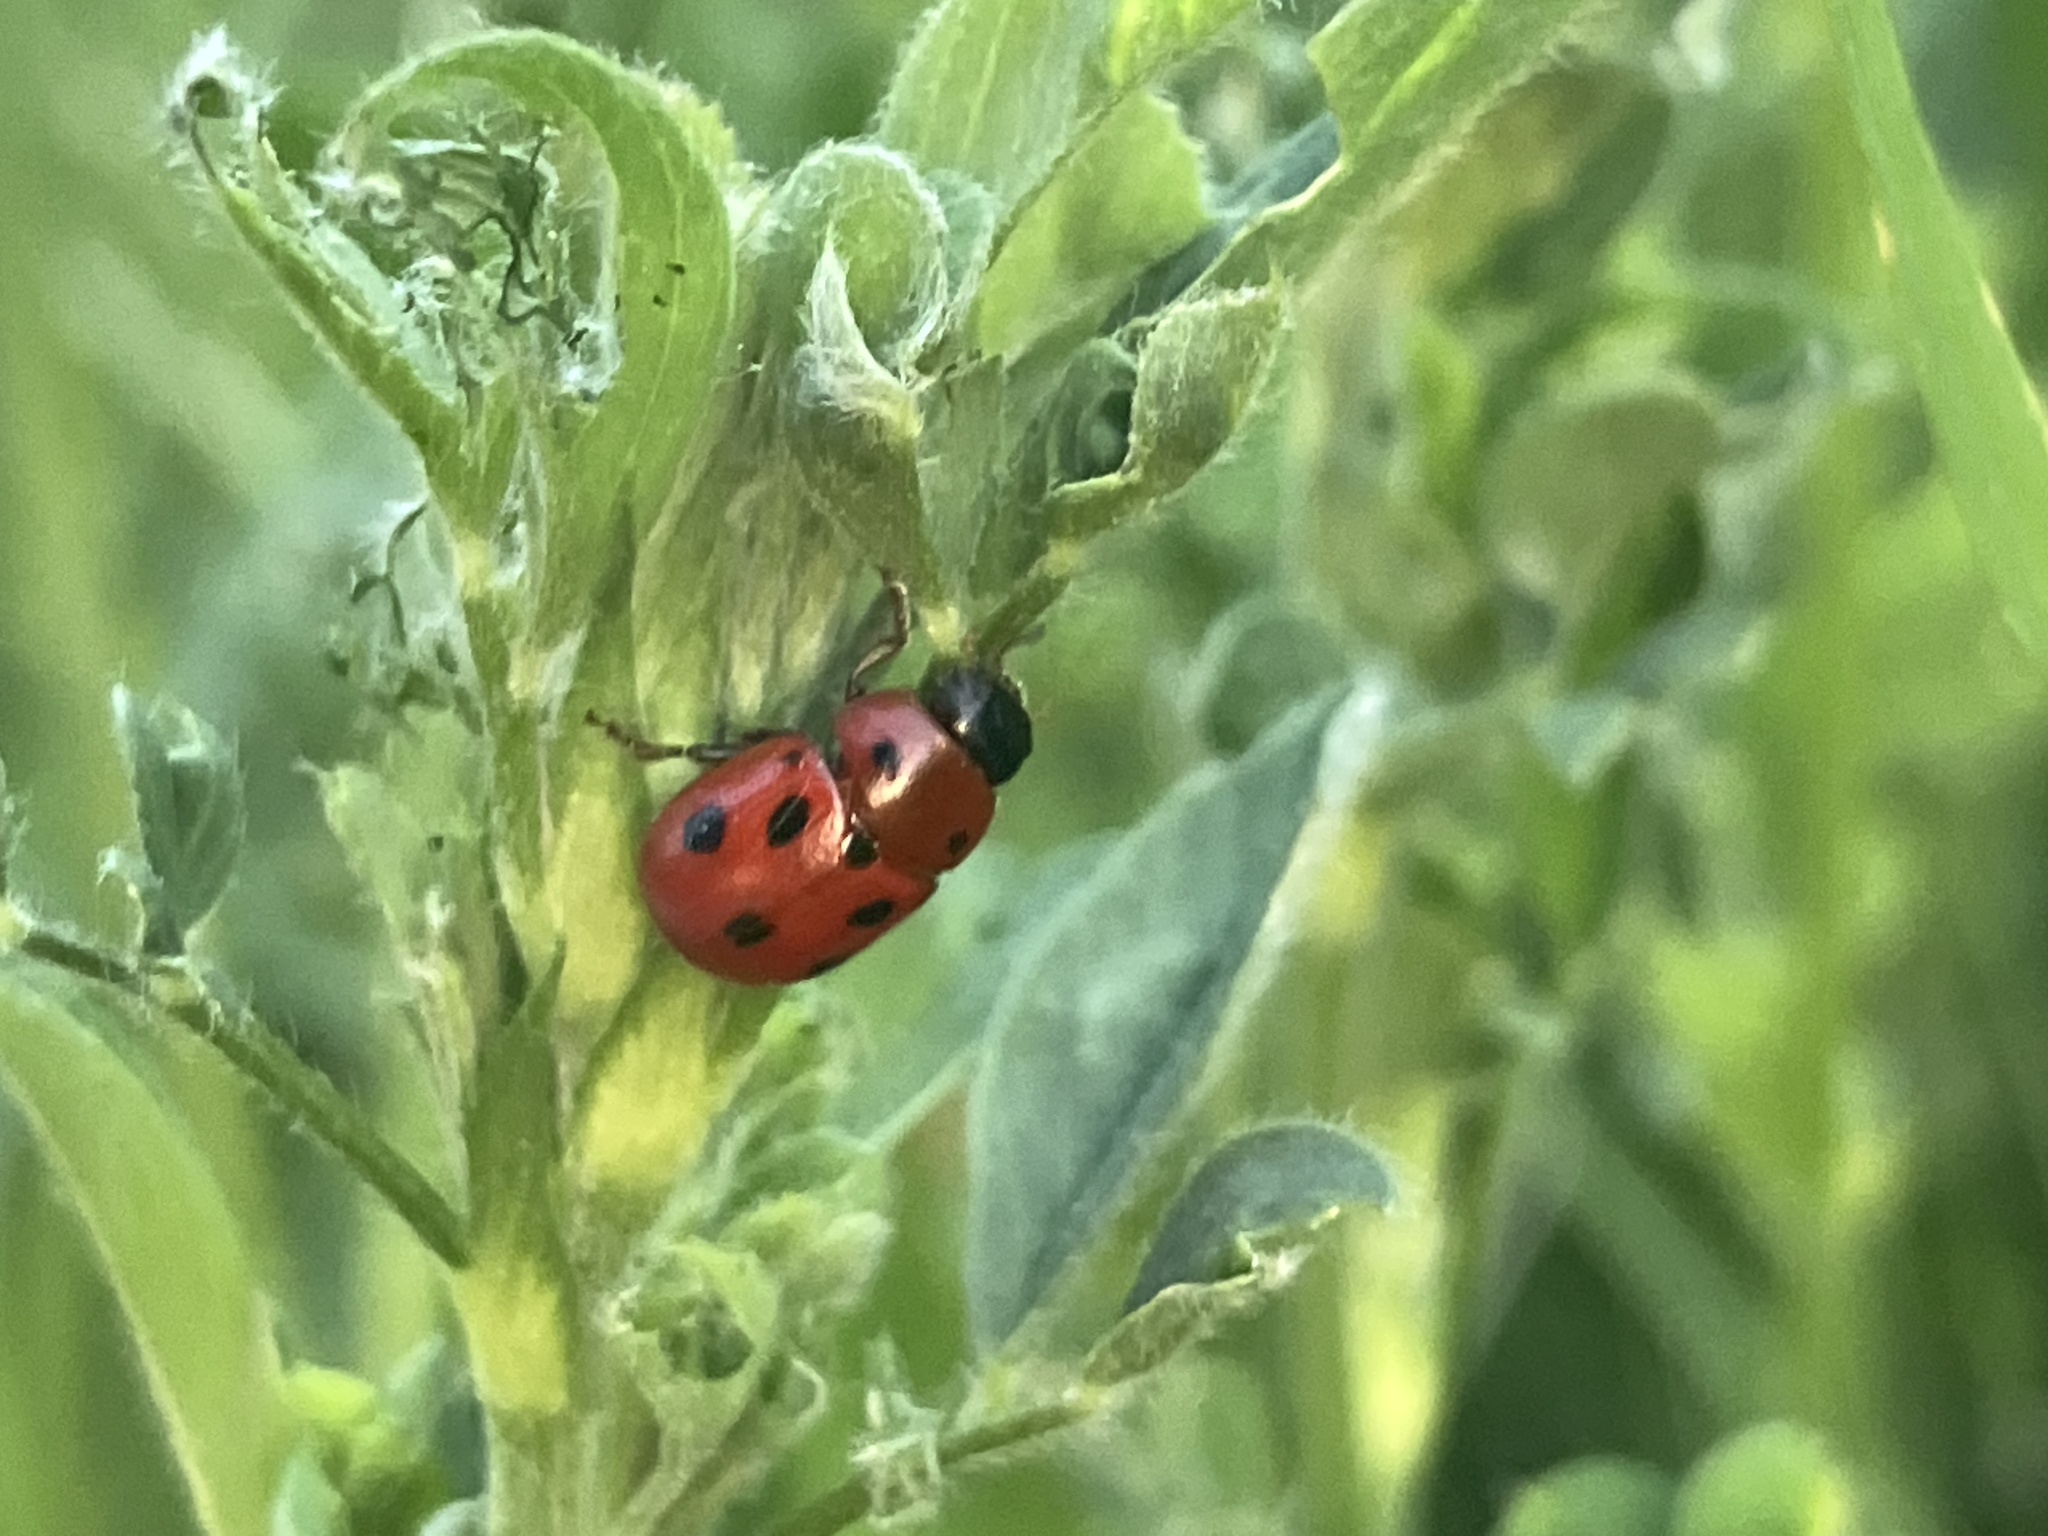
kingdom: Animalia
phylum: Arthropoda
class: Insecta
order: Coleoptera
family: Chrysomelidae
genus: Gonioctena
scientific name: Gonioctena fornicata
